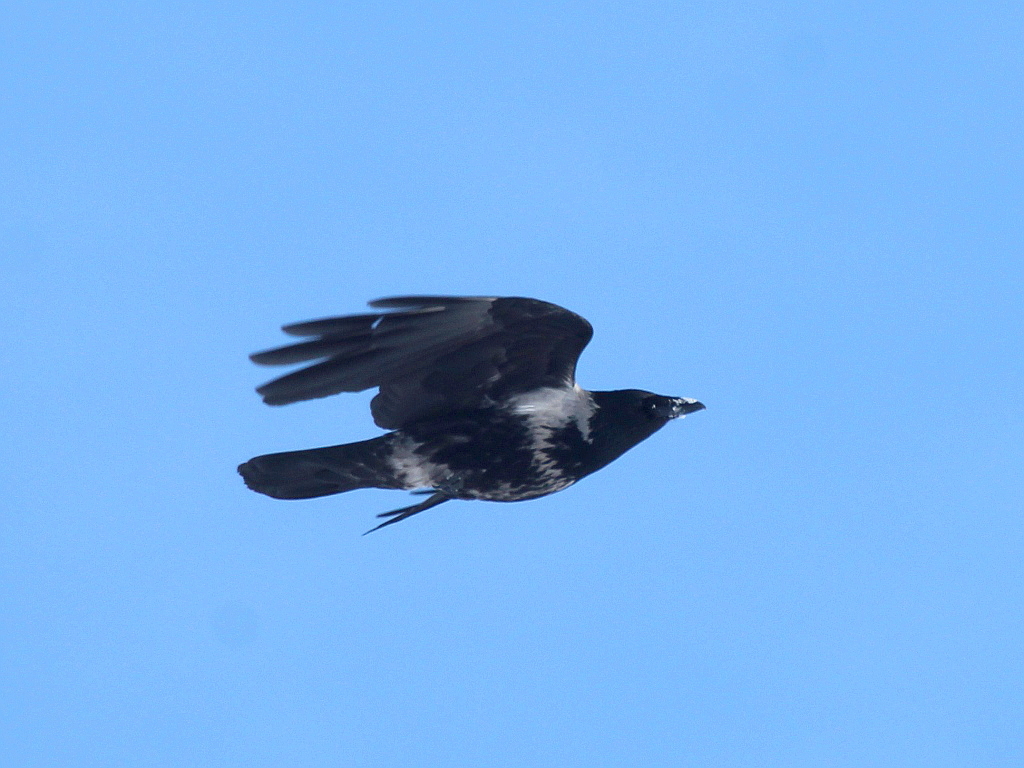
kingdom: Animalia
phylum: Chordata
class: Aves
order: Passeriformes
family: Corvidae
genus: Corvus
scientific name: Corvus
